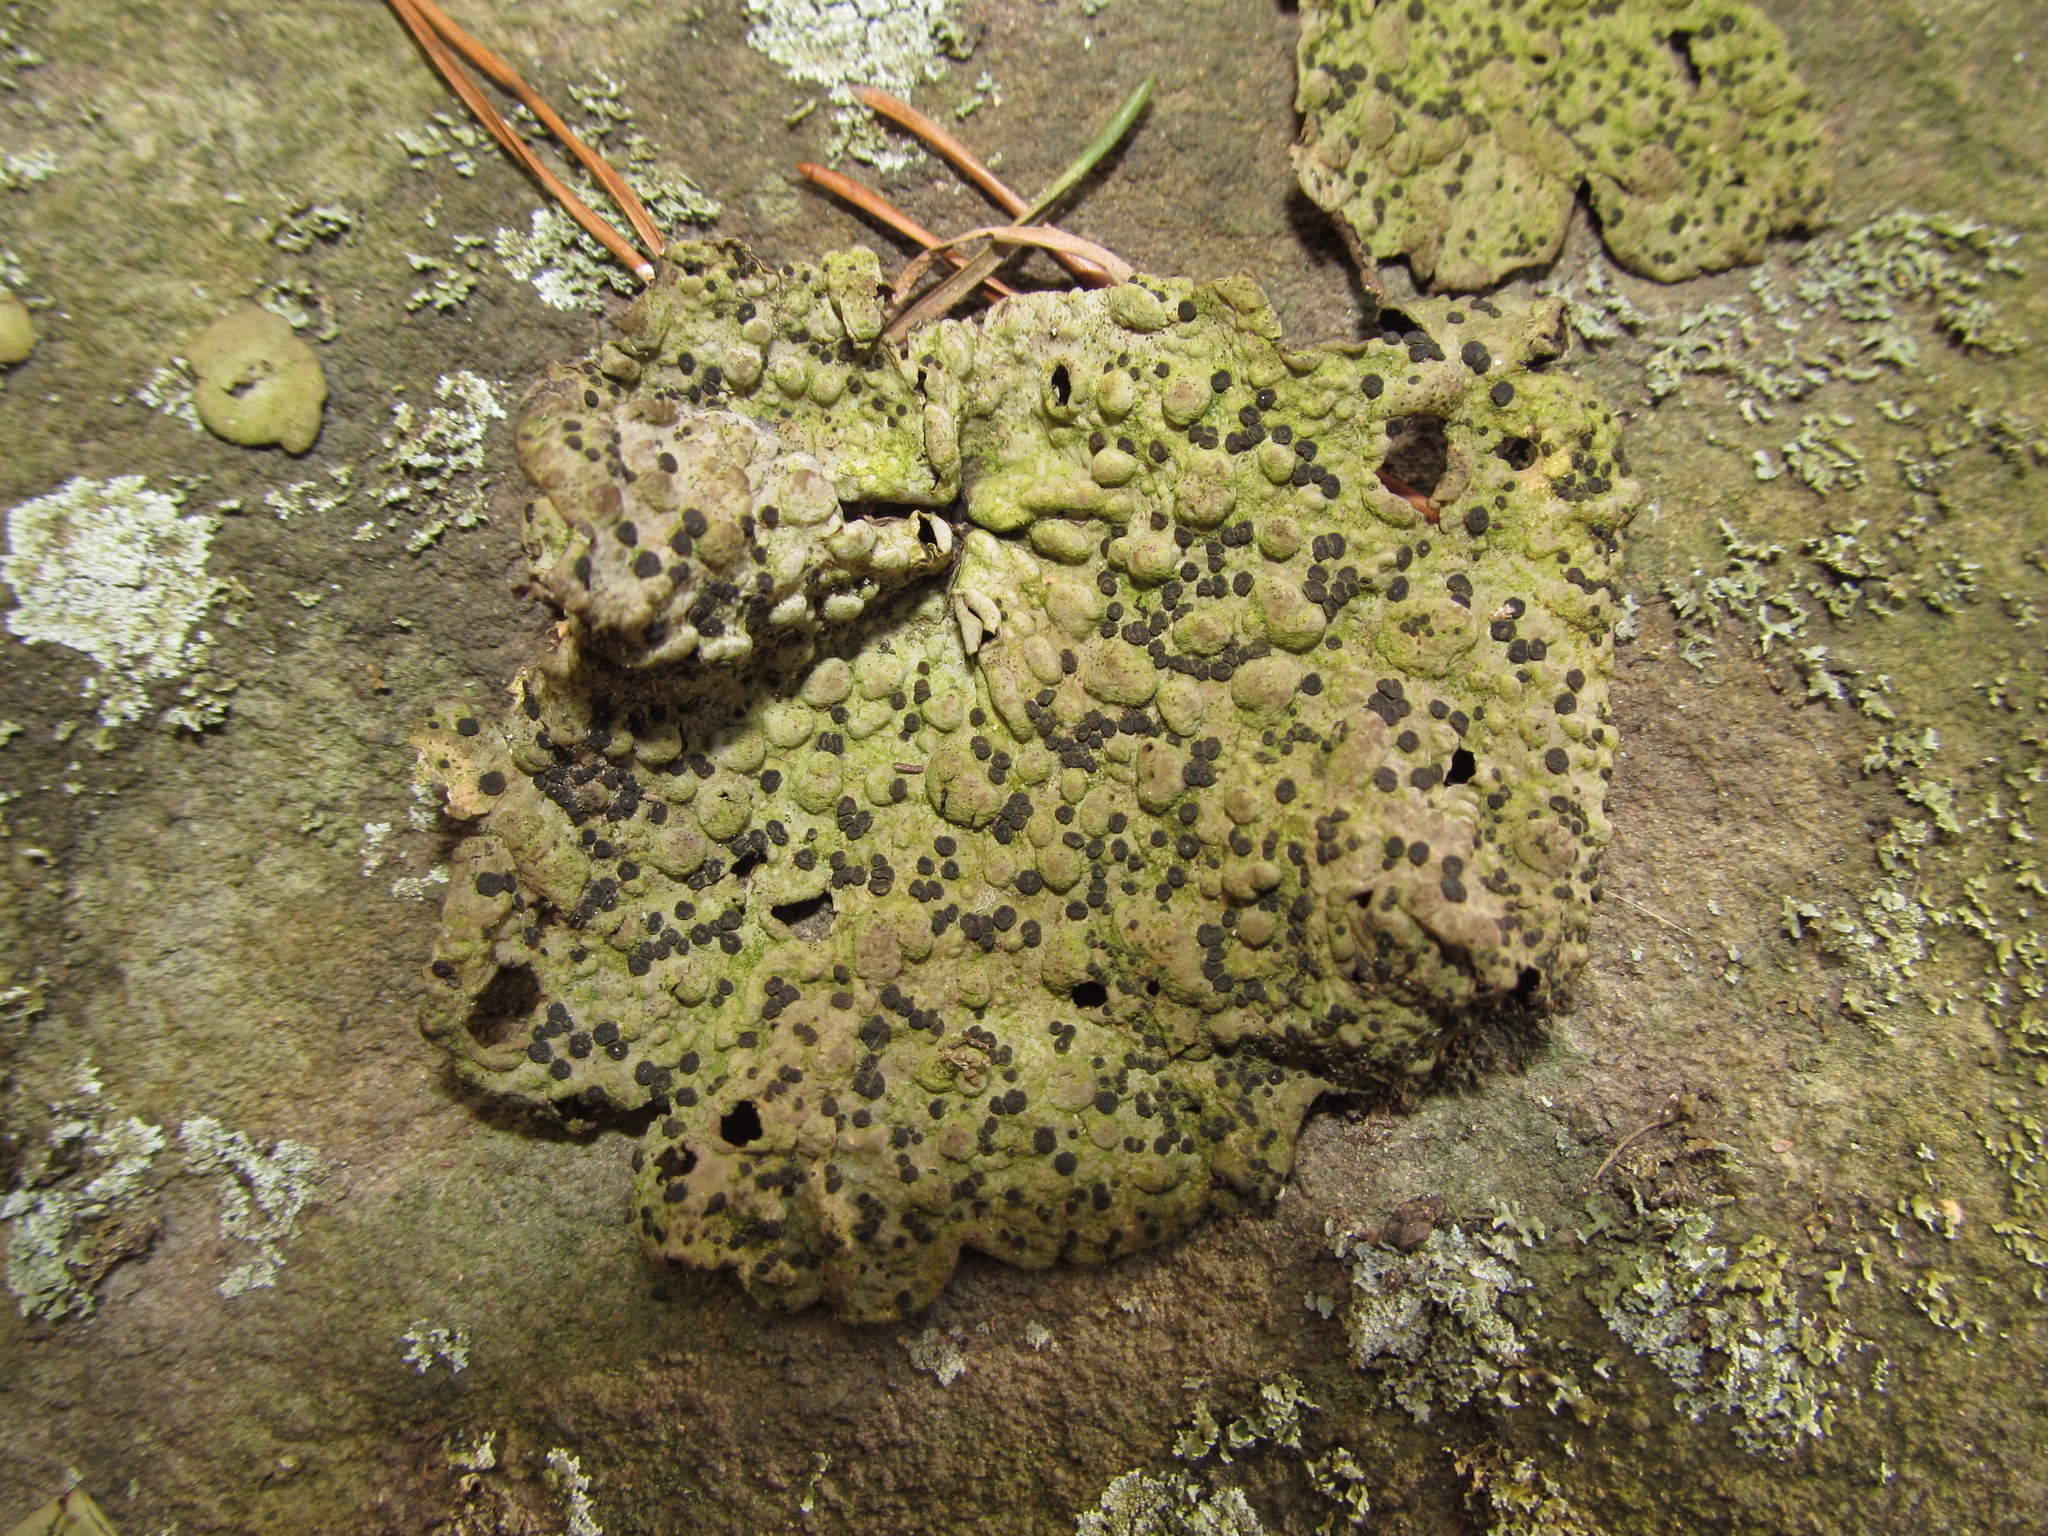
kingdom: Fungi
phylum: Ascomycota
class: Lecanoromycetes
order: Umbilicariales
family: Umbilicariaceae
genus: Lasallia
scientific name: Lasallia papulosa
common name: Common toadskin lichen
